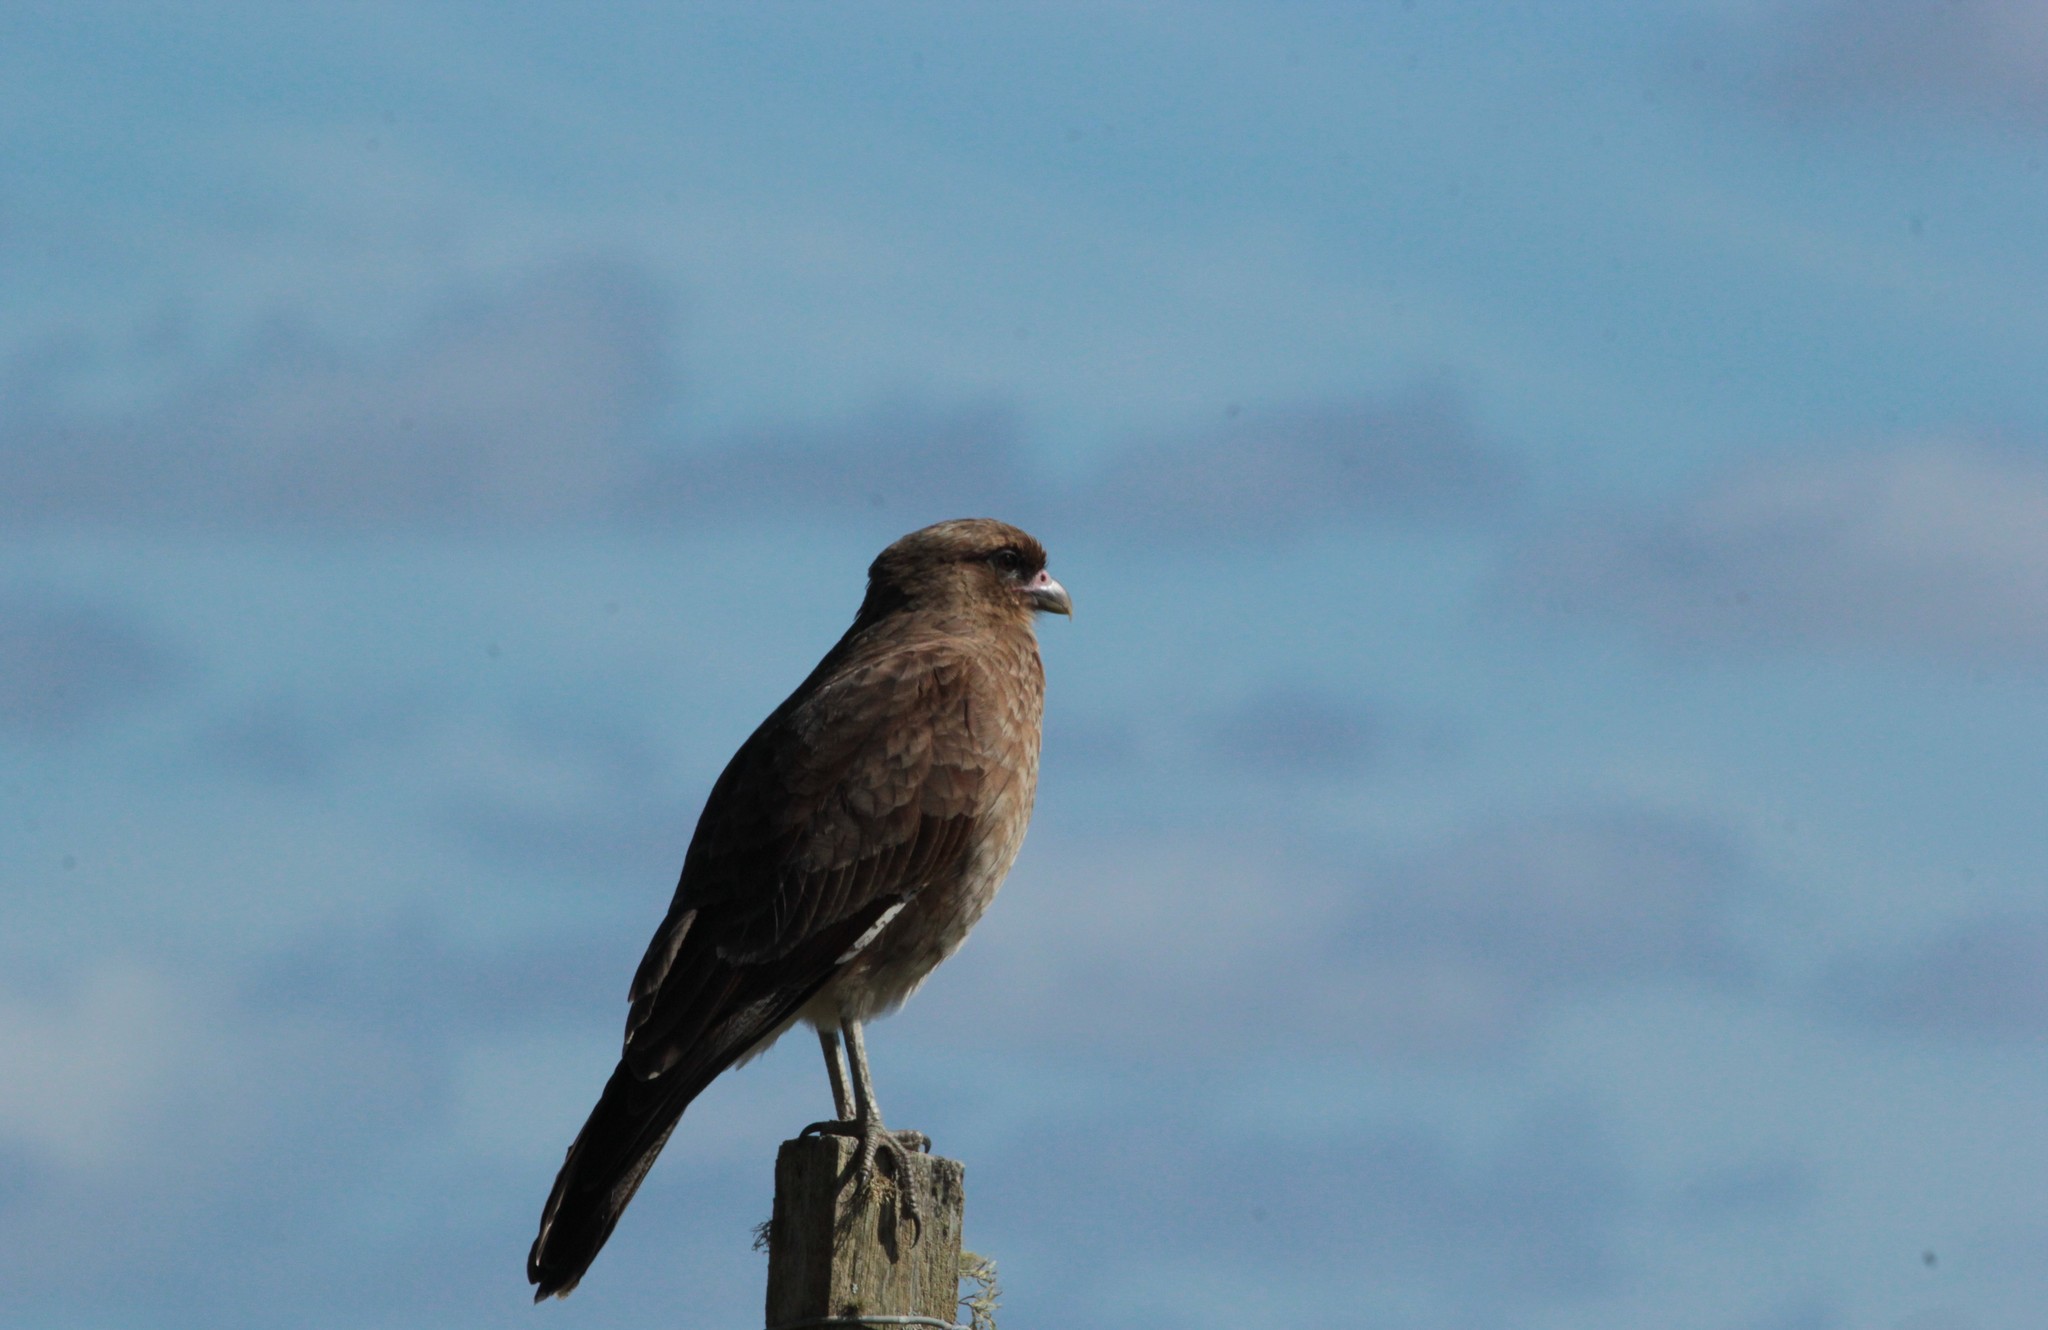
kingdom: Animalia
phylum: Chordata
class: Aves
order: Falconiformes
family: Falconidae
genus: Daptrius
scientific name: Daptrius
